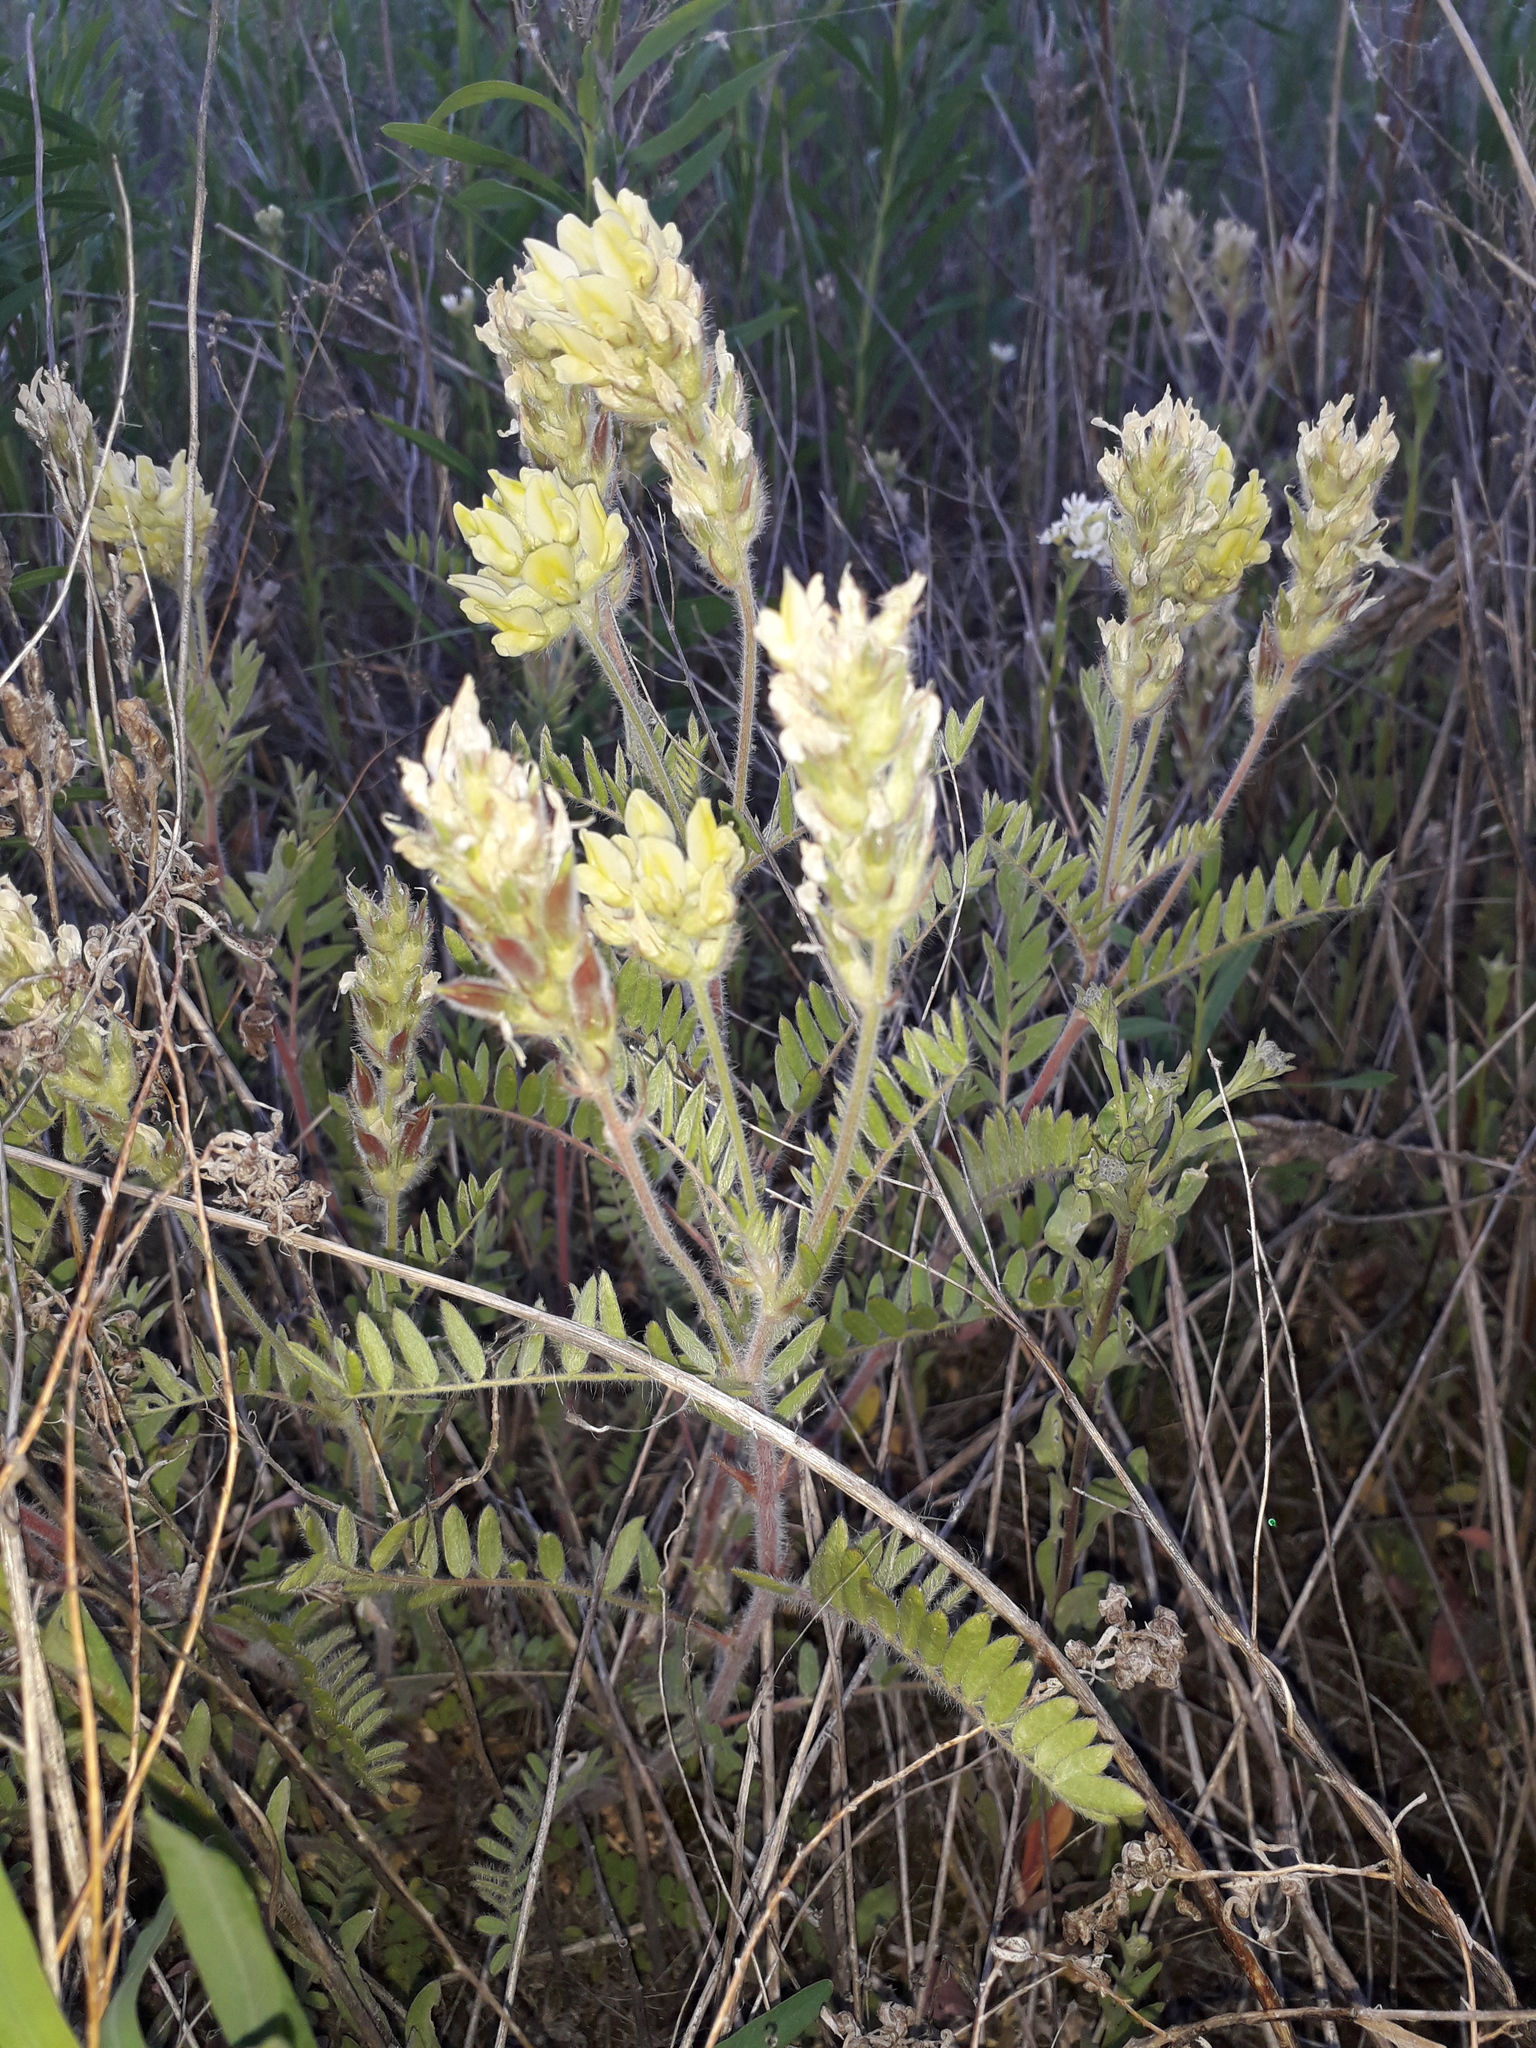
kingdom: Plantae
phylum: Tracheophyta
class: Magnoliopsida
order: Fabales
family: Fabaceae
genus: Oxytropis
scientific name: Oxytropis pilosa
